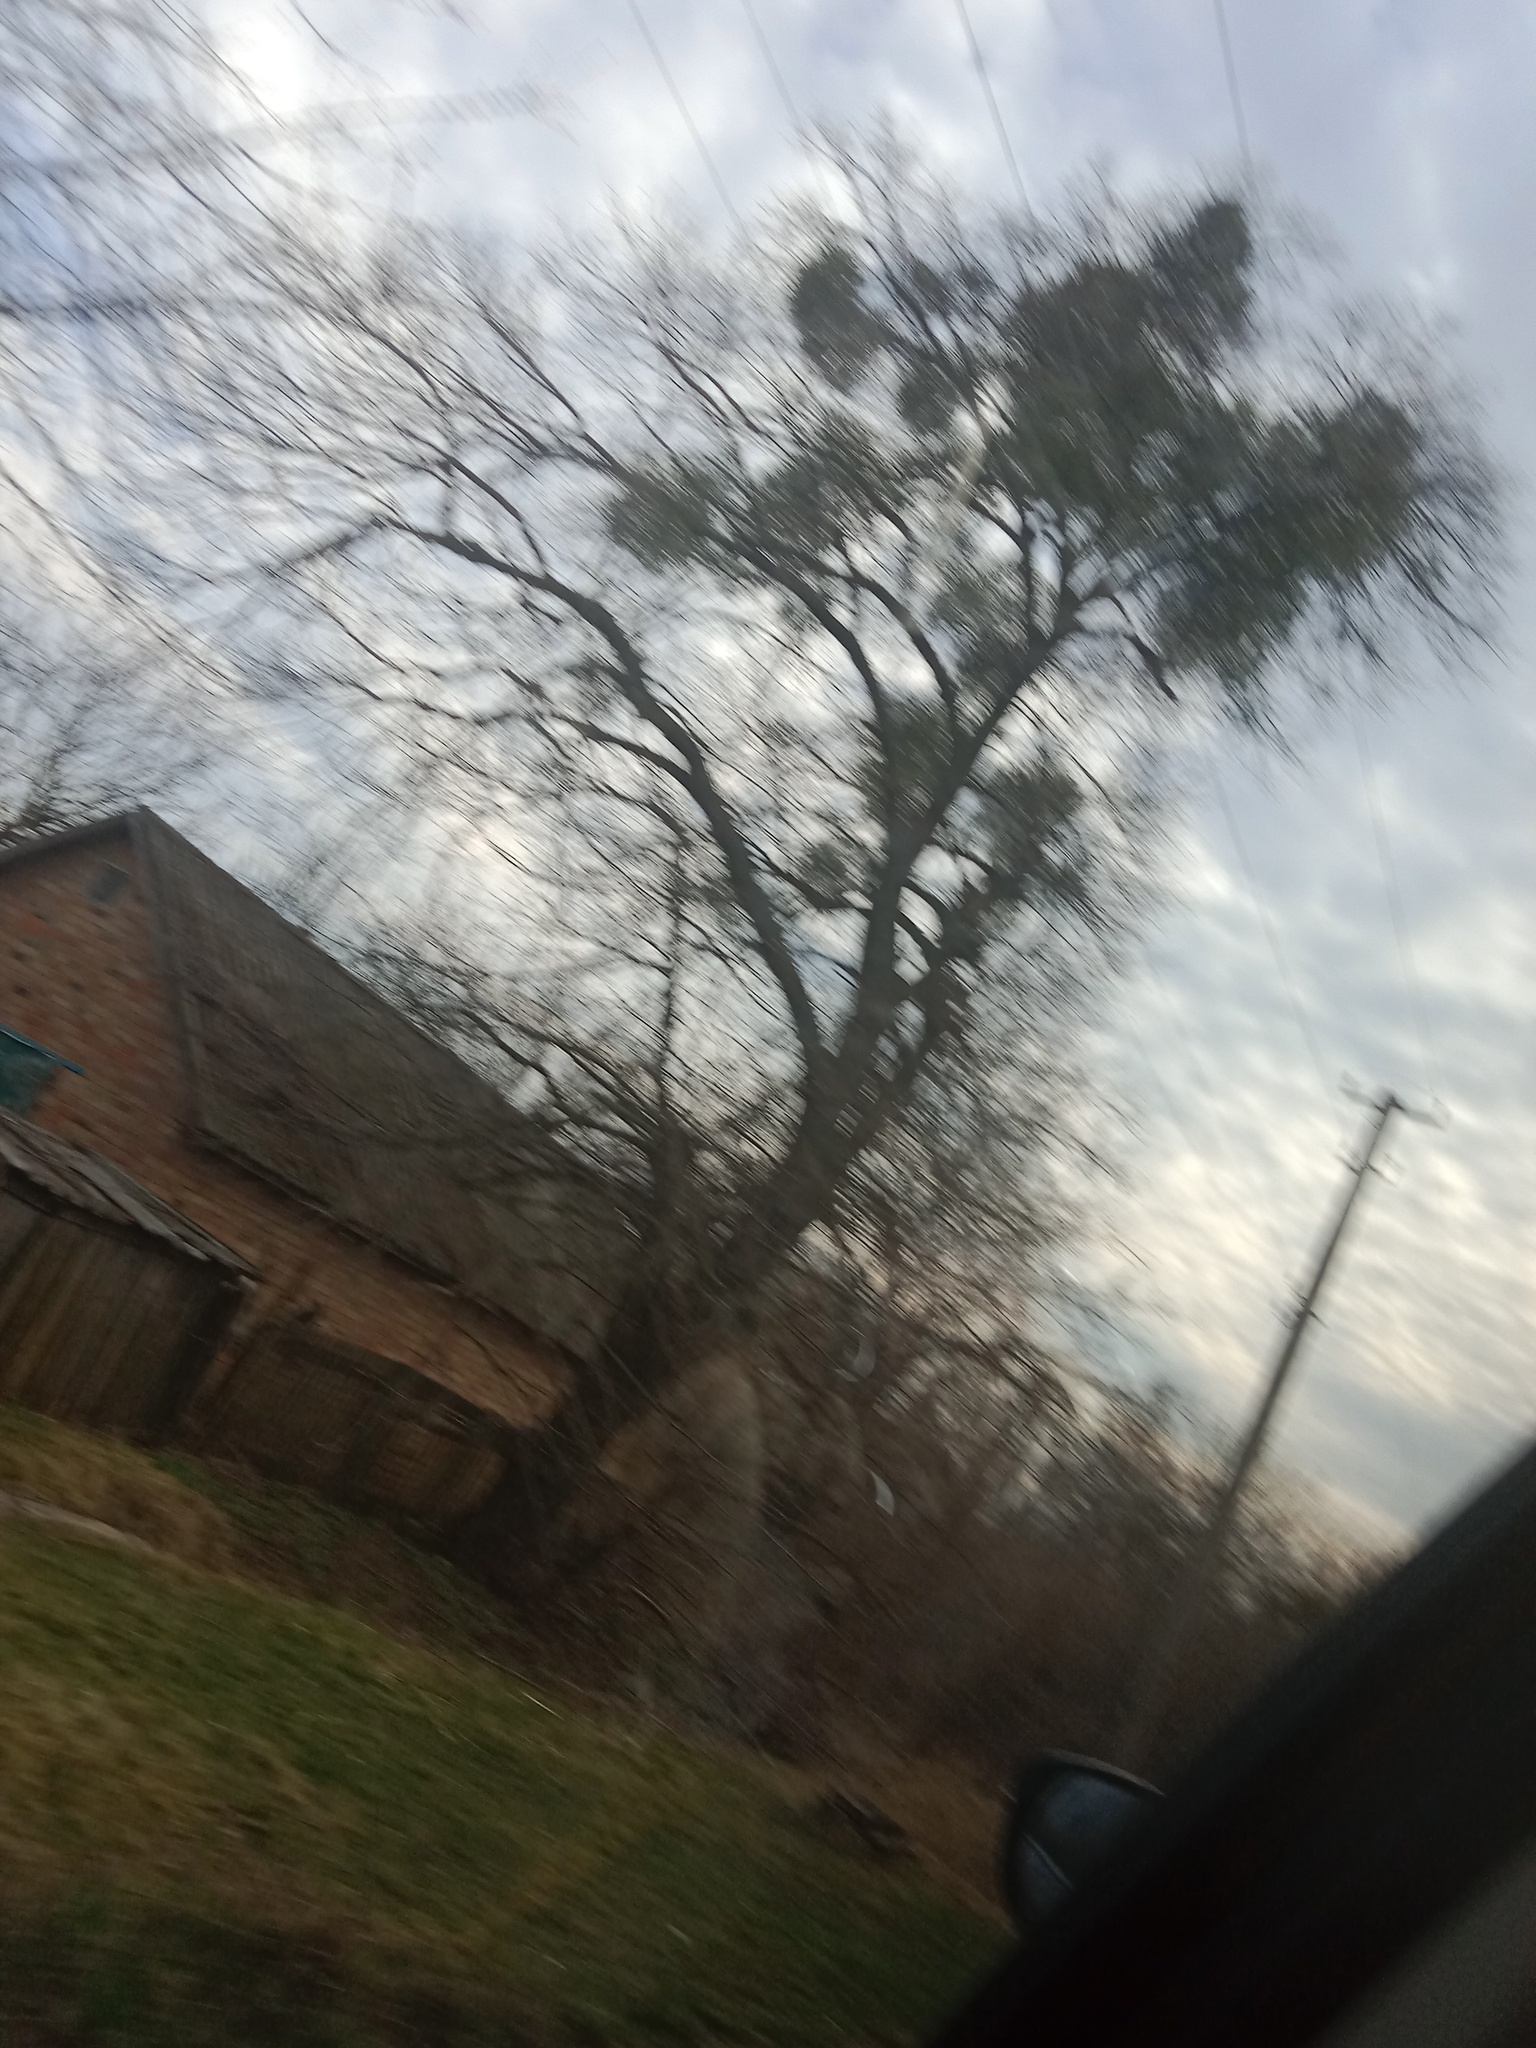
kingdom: Plantae
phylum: Tracheophyta
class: Magnoliopsida
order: Santalales
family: Viscaceae
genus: Viscum
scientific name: Viscum album
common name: Mistletoe
